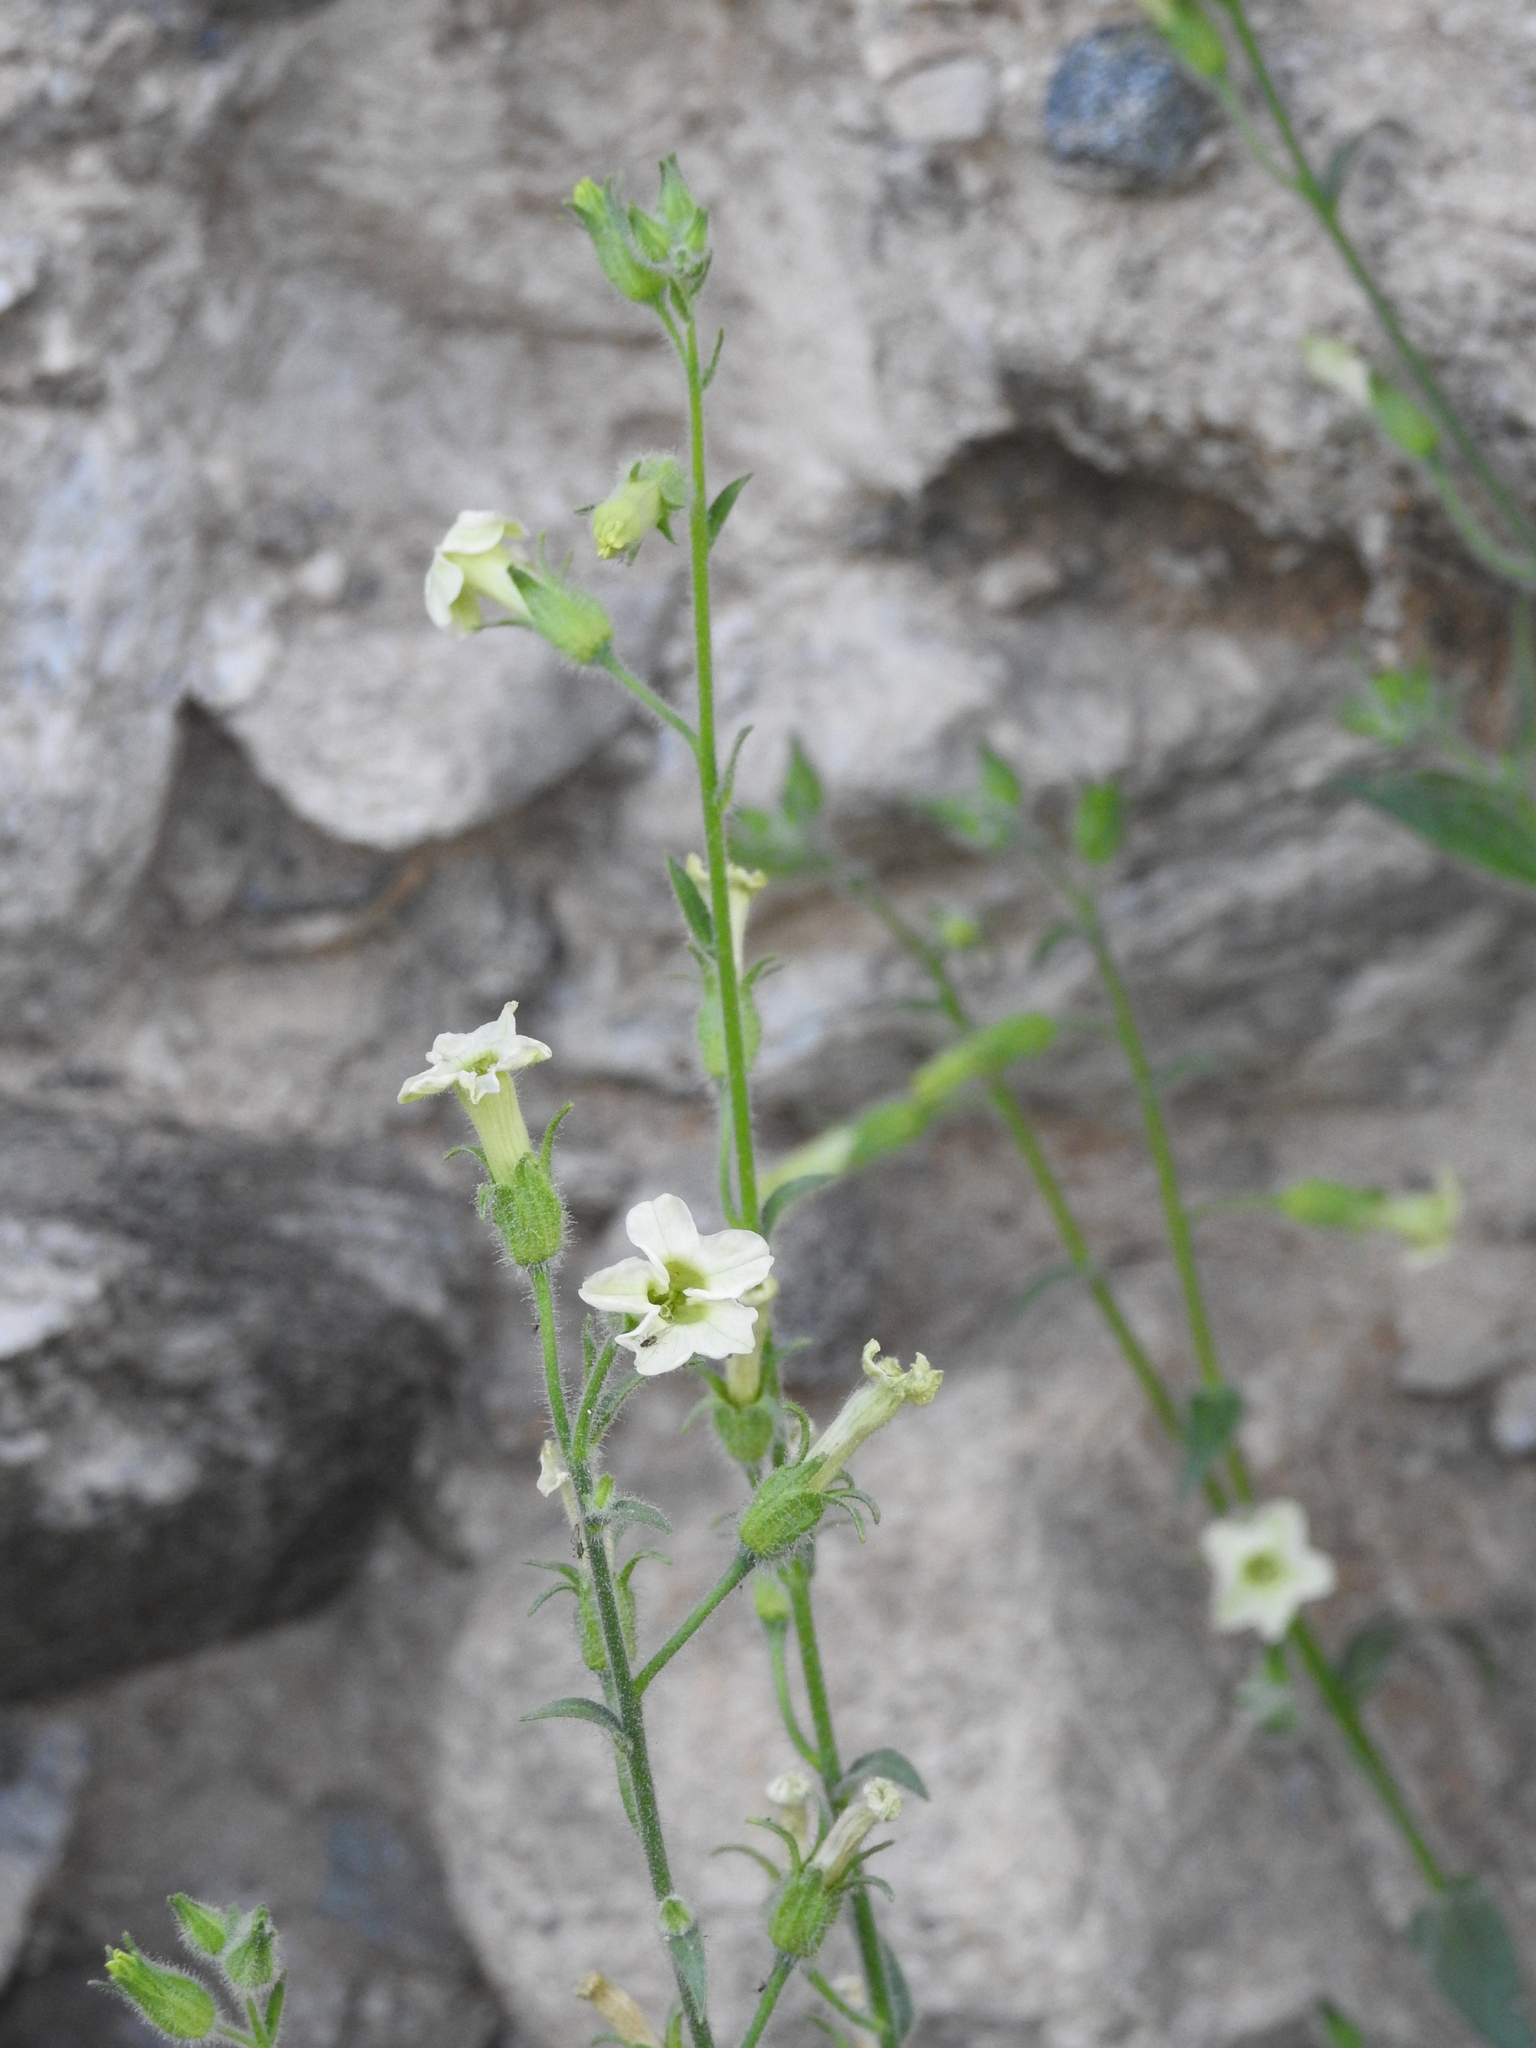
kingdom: Plantae
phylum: Tracheophyta
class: Magnoliopsida
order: Solanales
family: Solanaceae
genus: Nicotiana
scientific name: Nicotiana obtusifolia
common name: Desert tobacco
